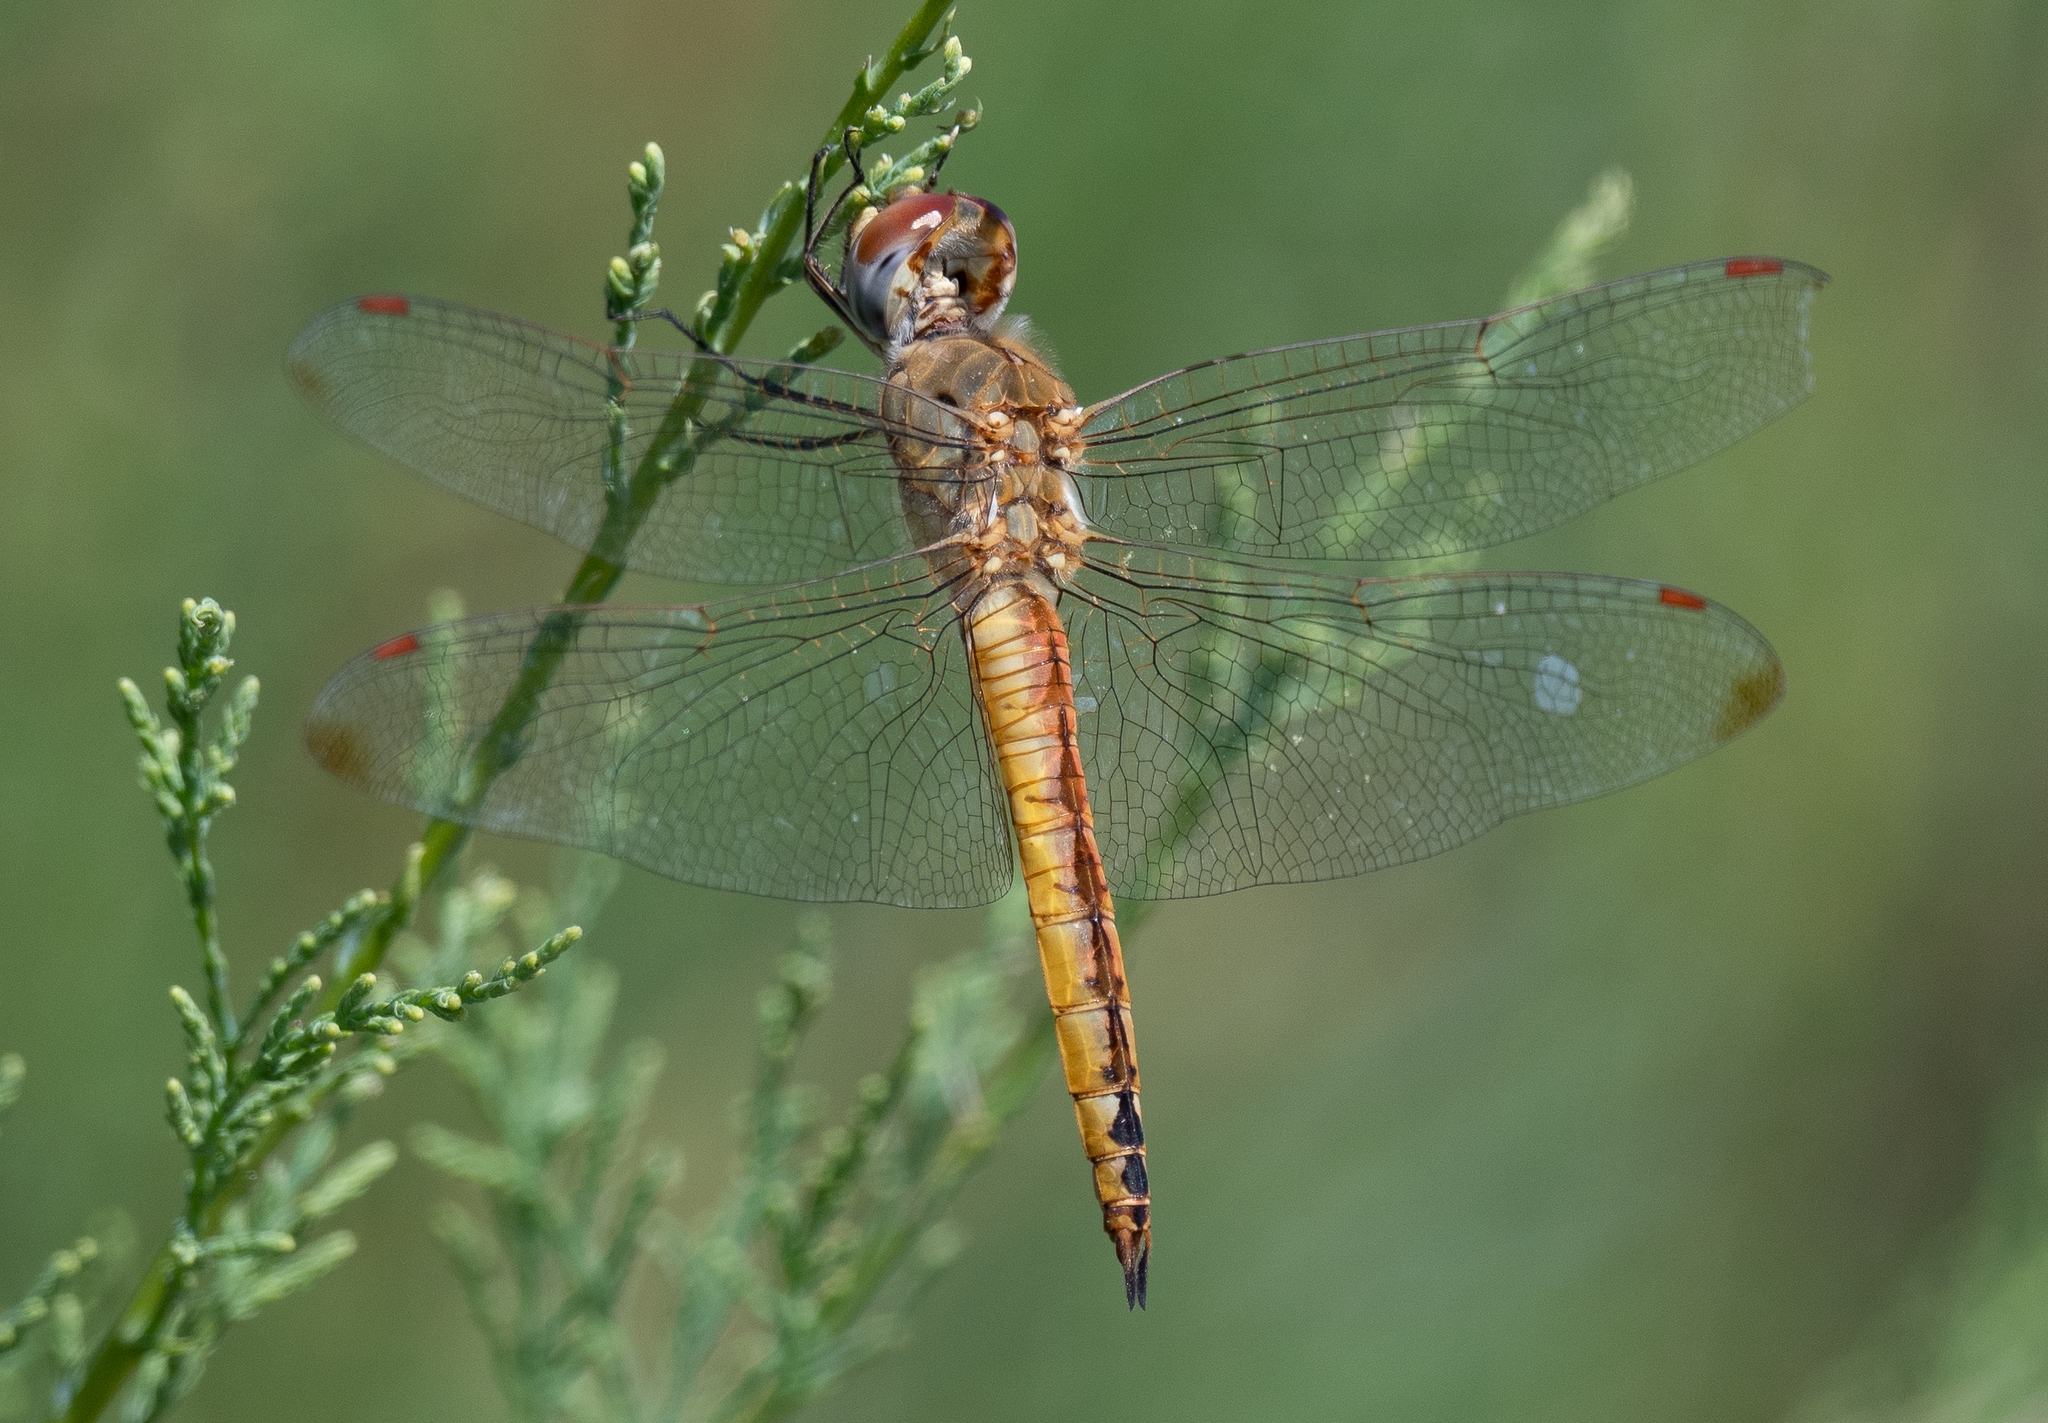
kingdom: Animalia
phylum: Arthropoda
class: Insecta
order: Odonata
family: Libellulidae
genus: Pantala
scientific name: Pantala flavescens
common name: Wandering glider
